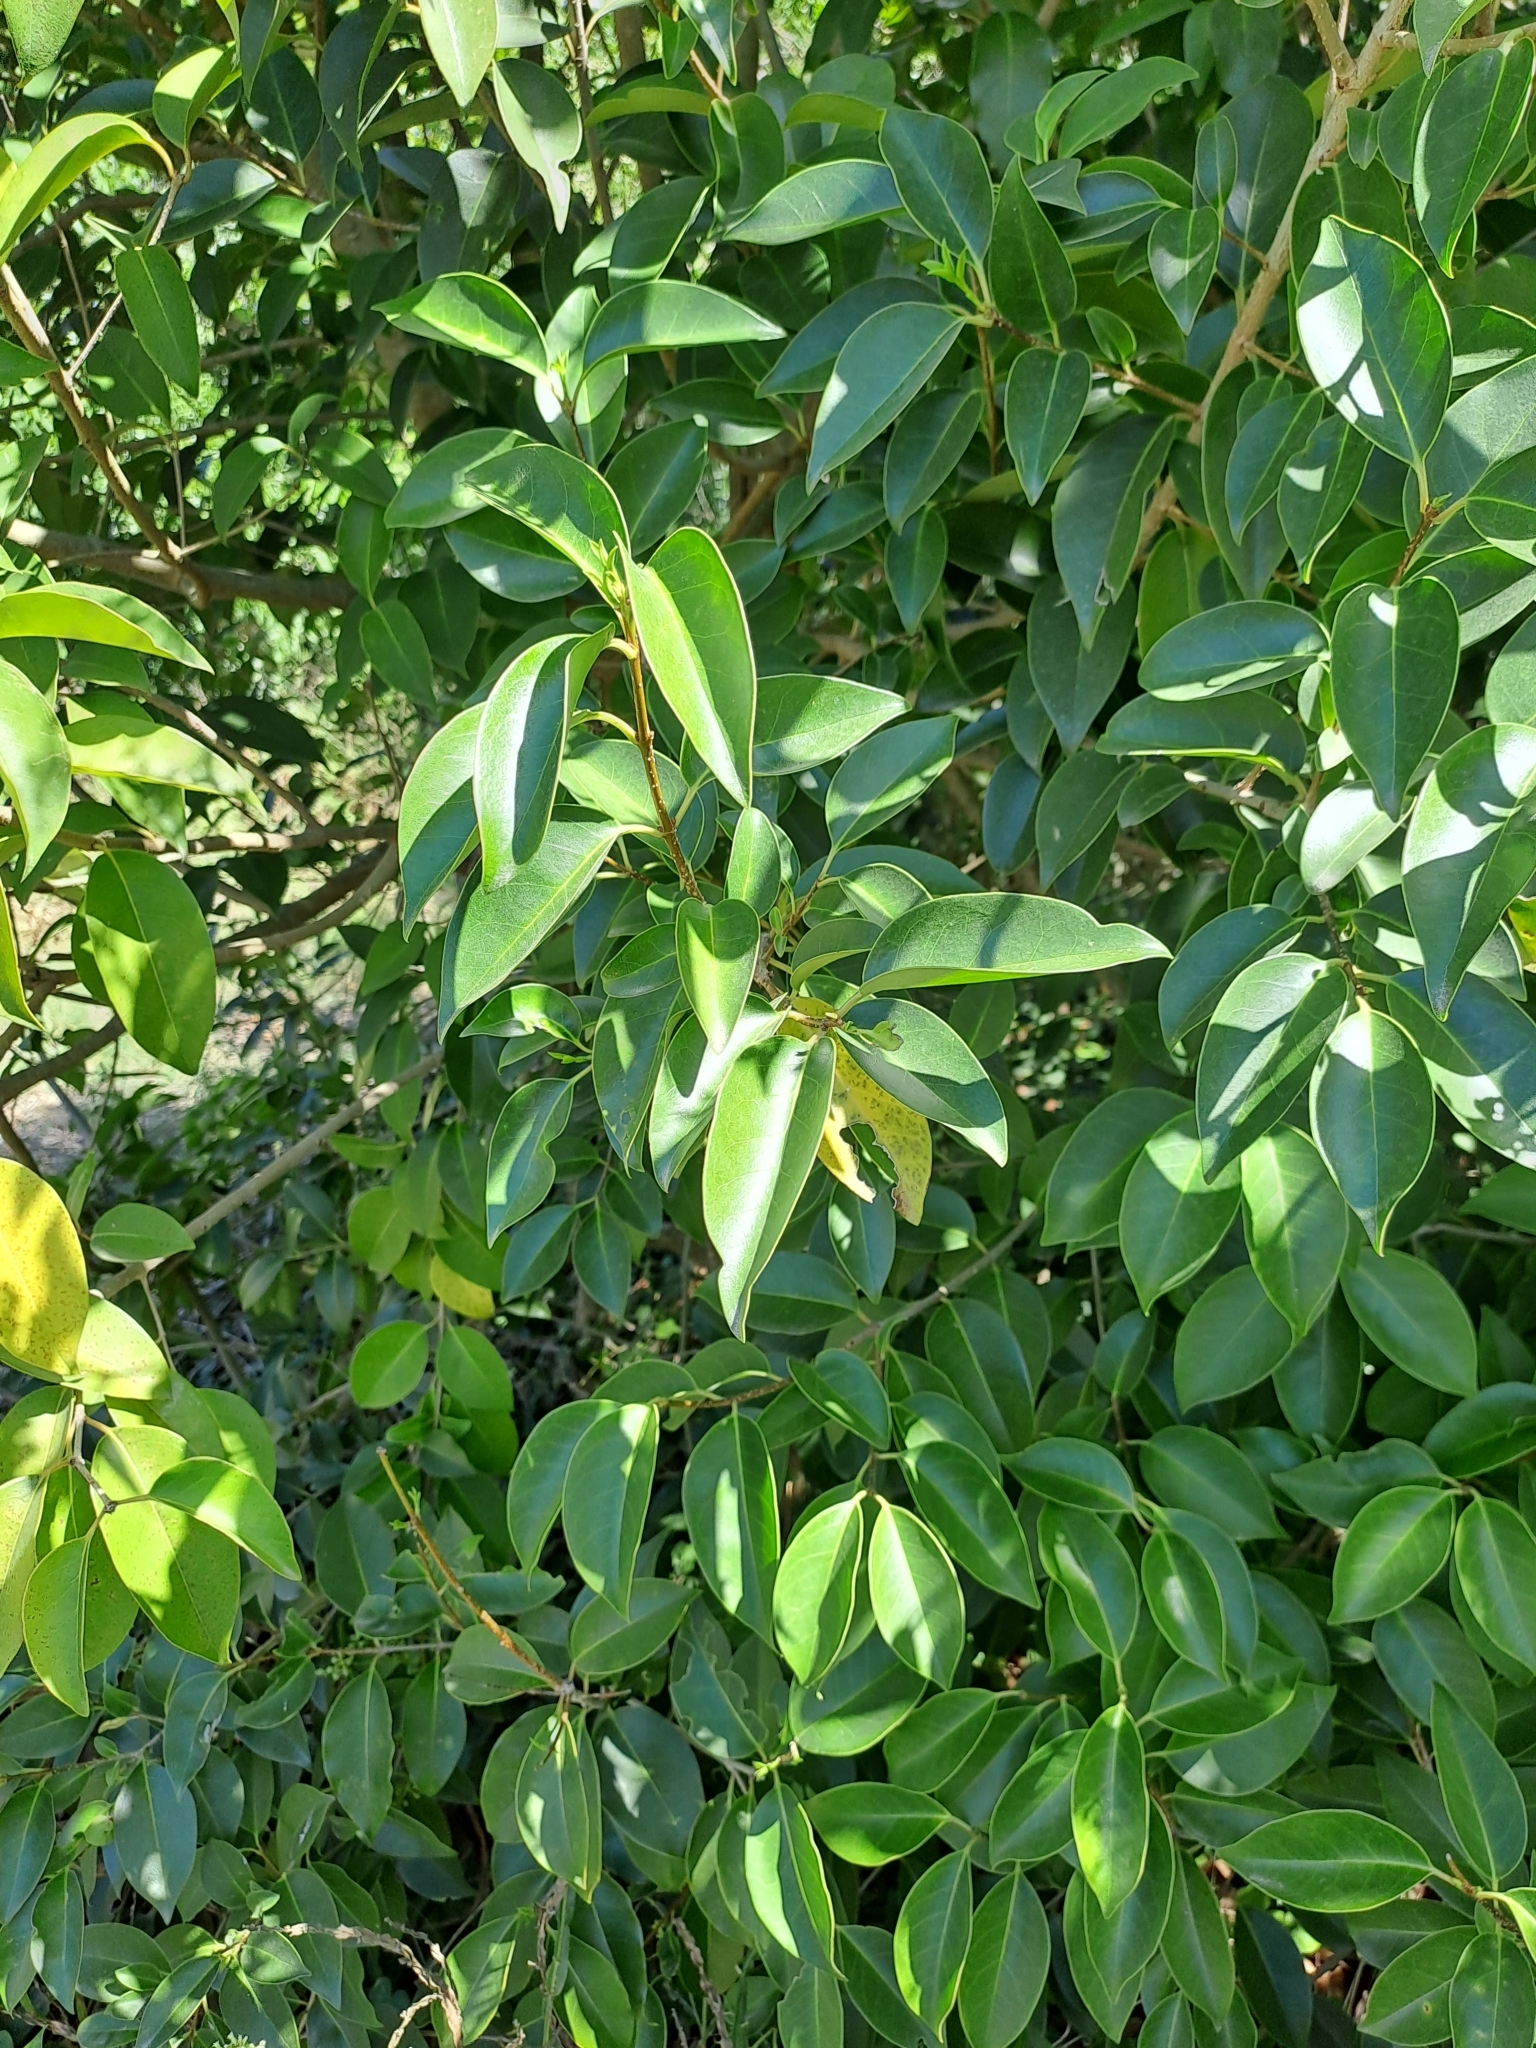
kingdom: Plantae
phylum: Tracheophyta
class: Magnoliopsida
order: Lamiales
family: Oleaceae
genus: Ligustrum
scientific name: Ligustrum lucidum
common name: Glossy privet
